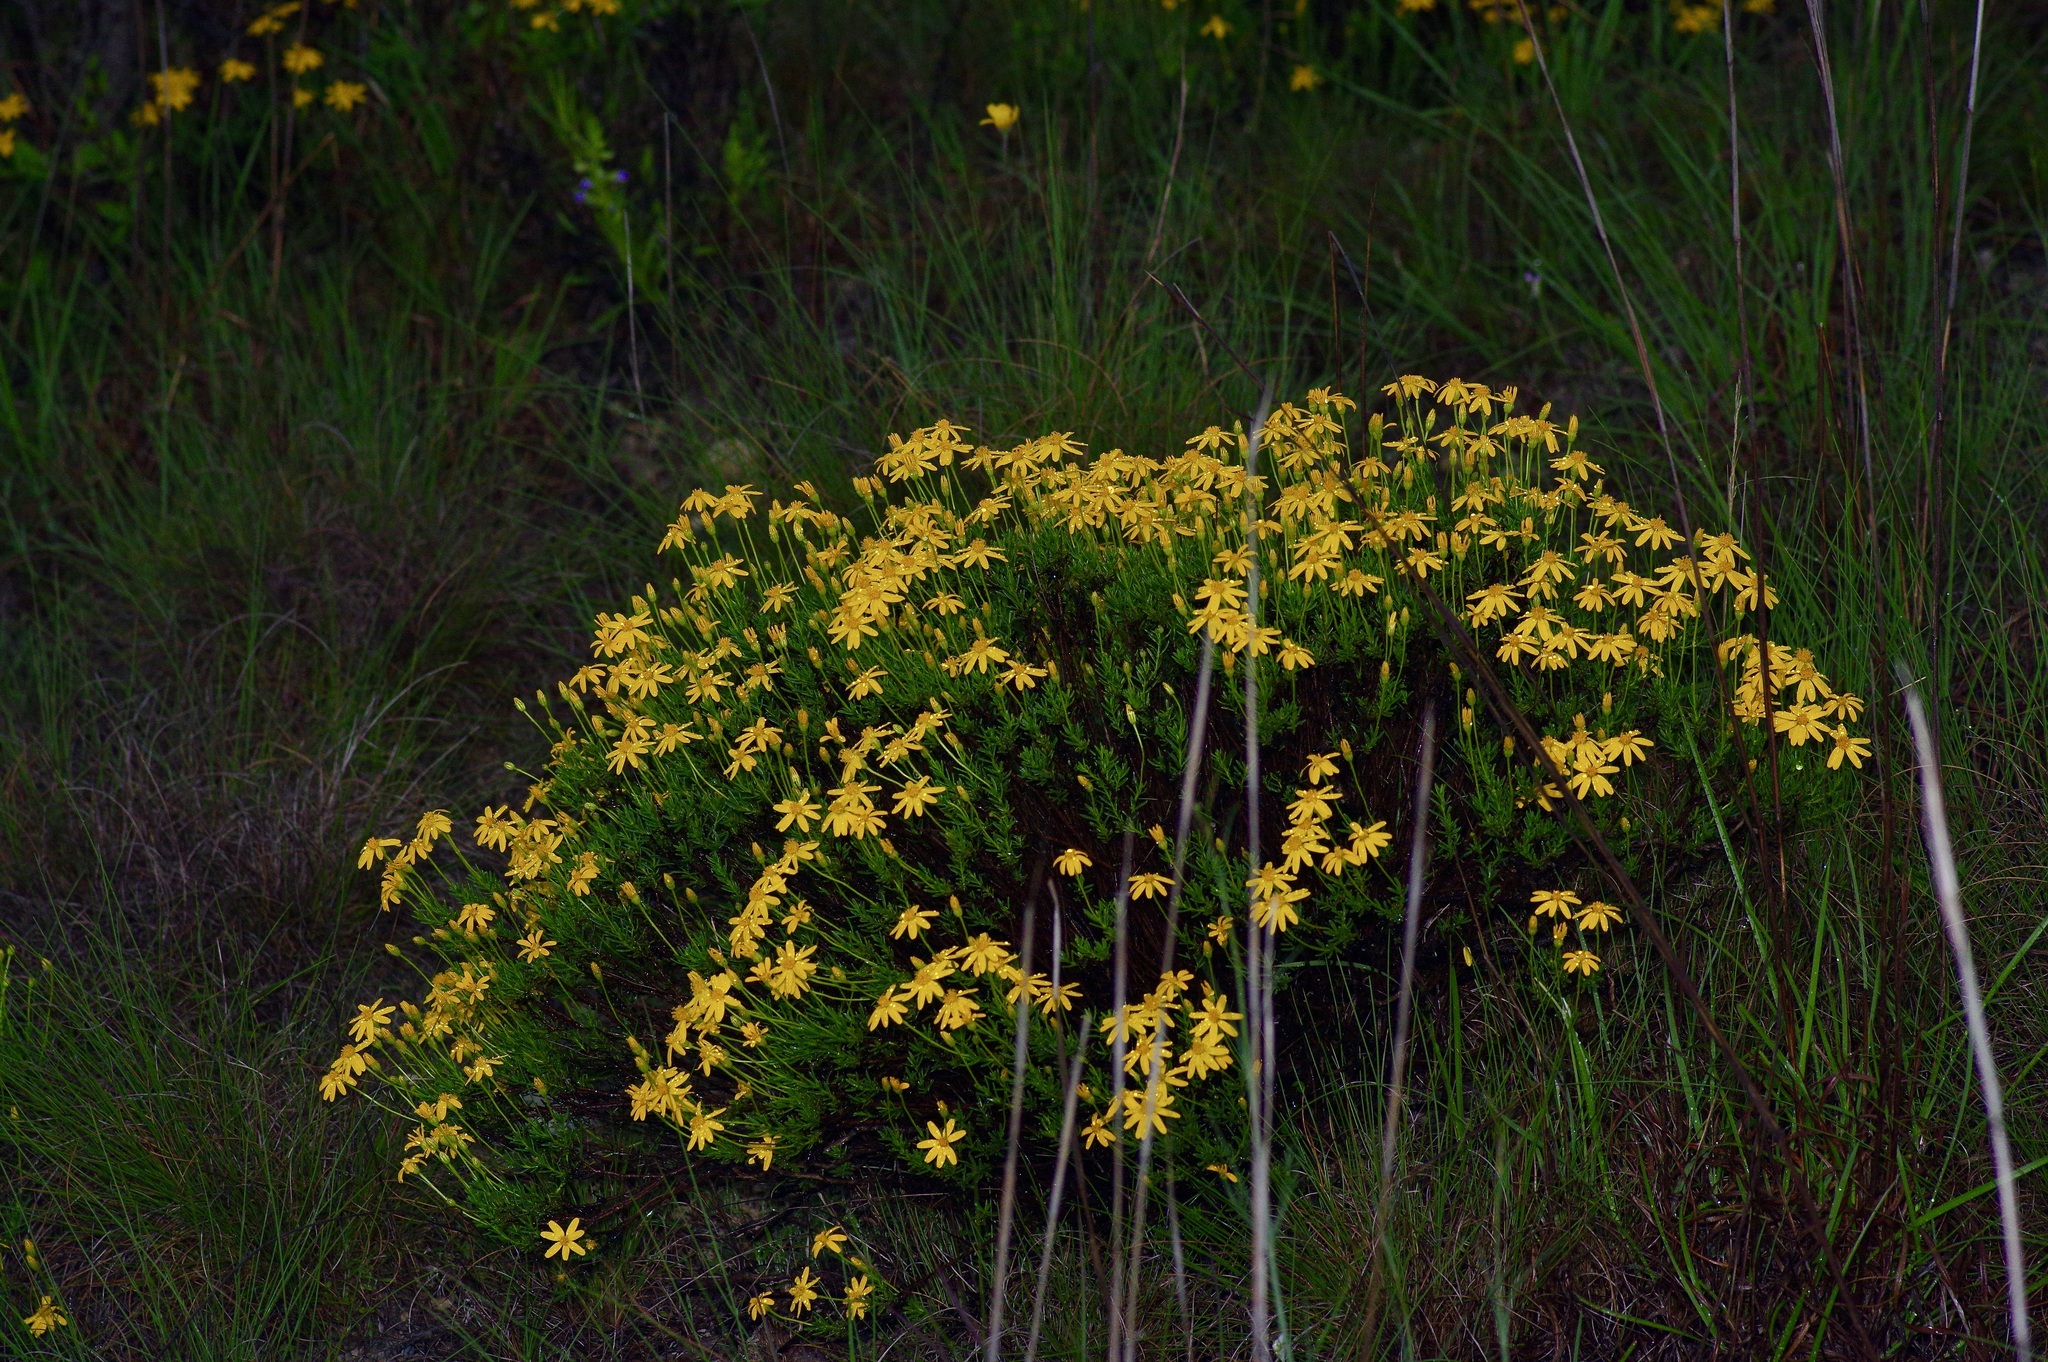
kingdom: Plantae
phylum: Tracheophyta
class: Magnoliopsida
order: Asterales
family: Asteraceae
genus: Chrysactinia
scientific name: Chrysactinia mexicana
